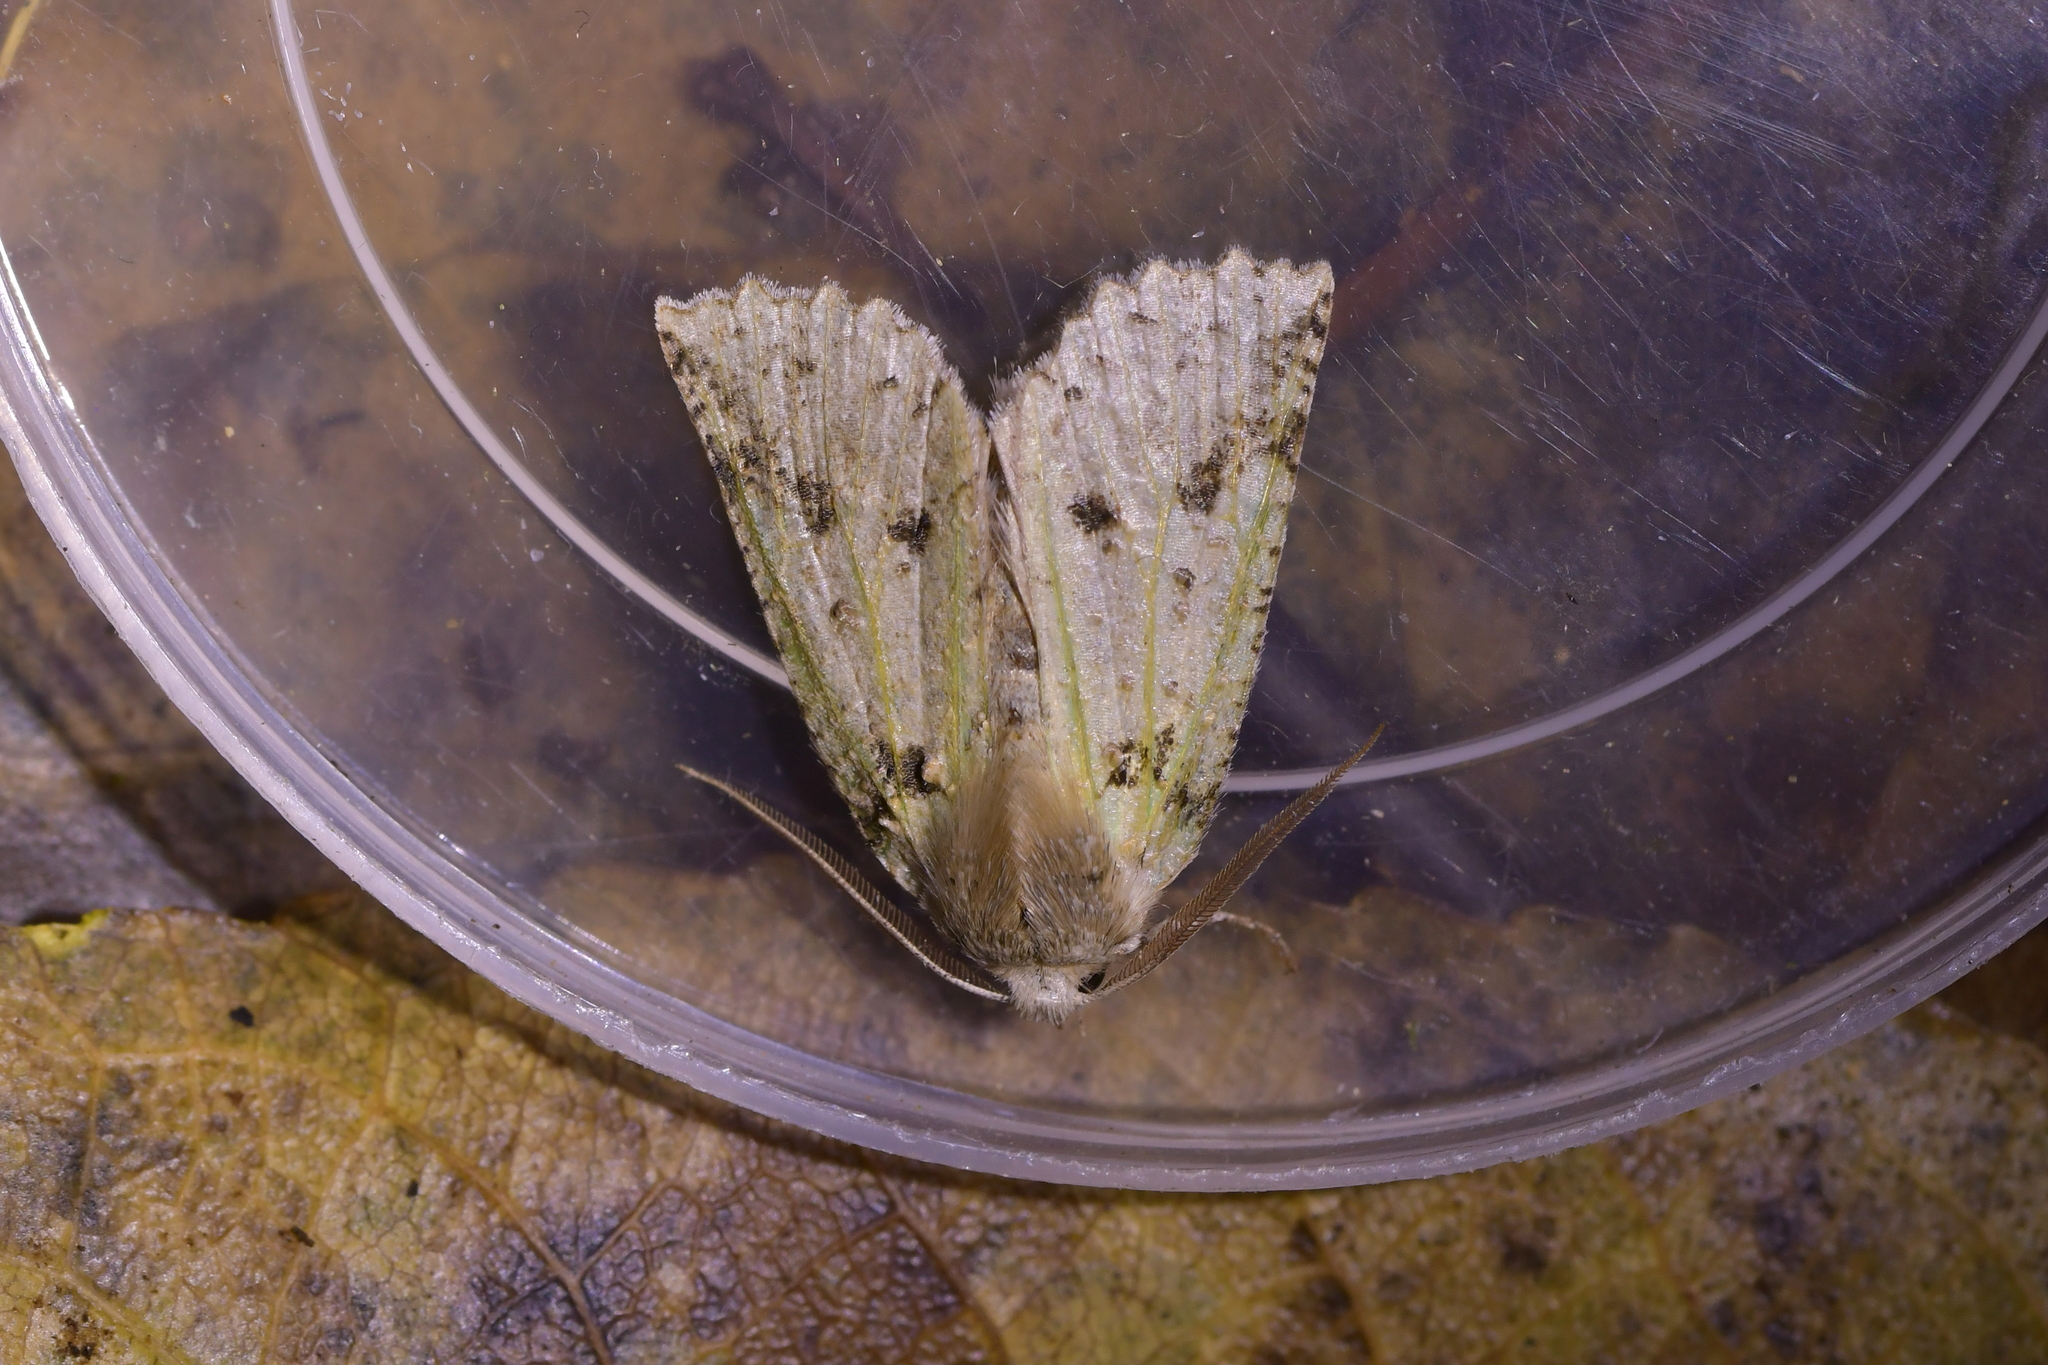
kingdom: Animalia
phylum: Arthropoda
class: Insecta
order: Lepidoptera
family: Geometridae
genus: Declana
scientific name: Declana floccosa
